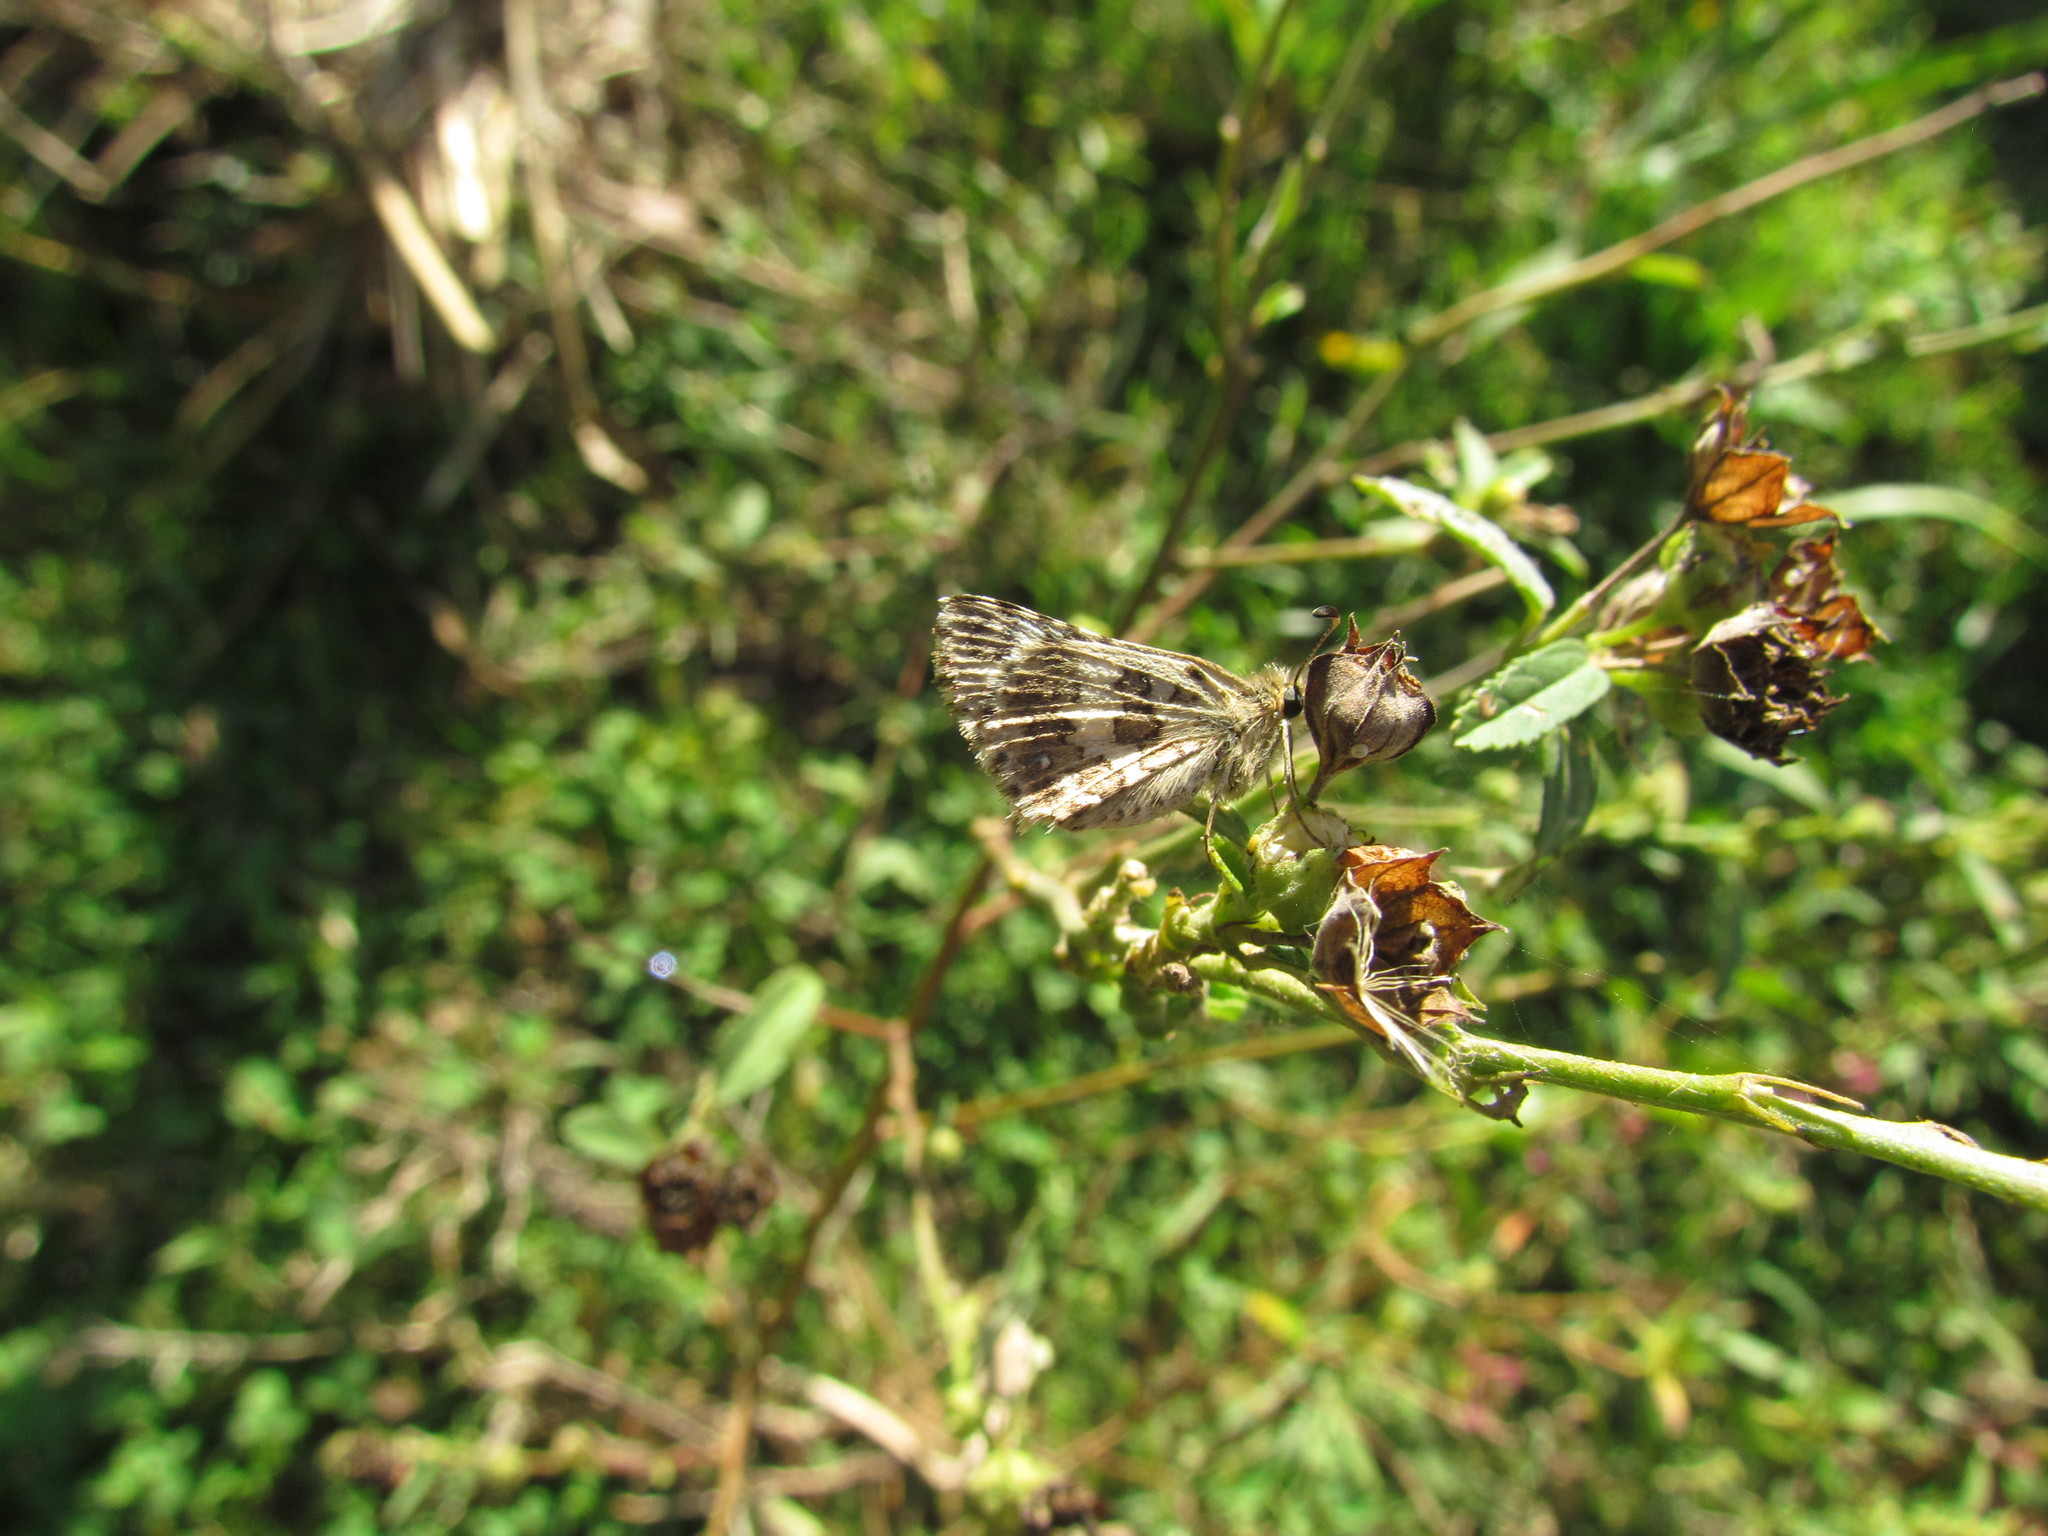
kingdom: Animalia
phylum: Arthropoda
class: Insecta
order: Lepidoptera
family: Hesperiidae
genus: Burnsius
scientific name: Burnsius orcynoides
